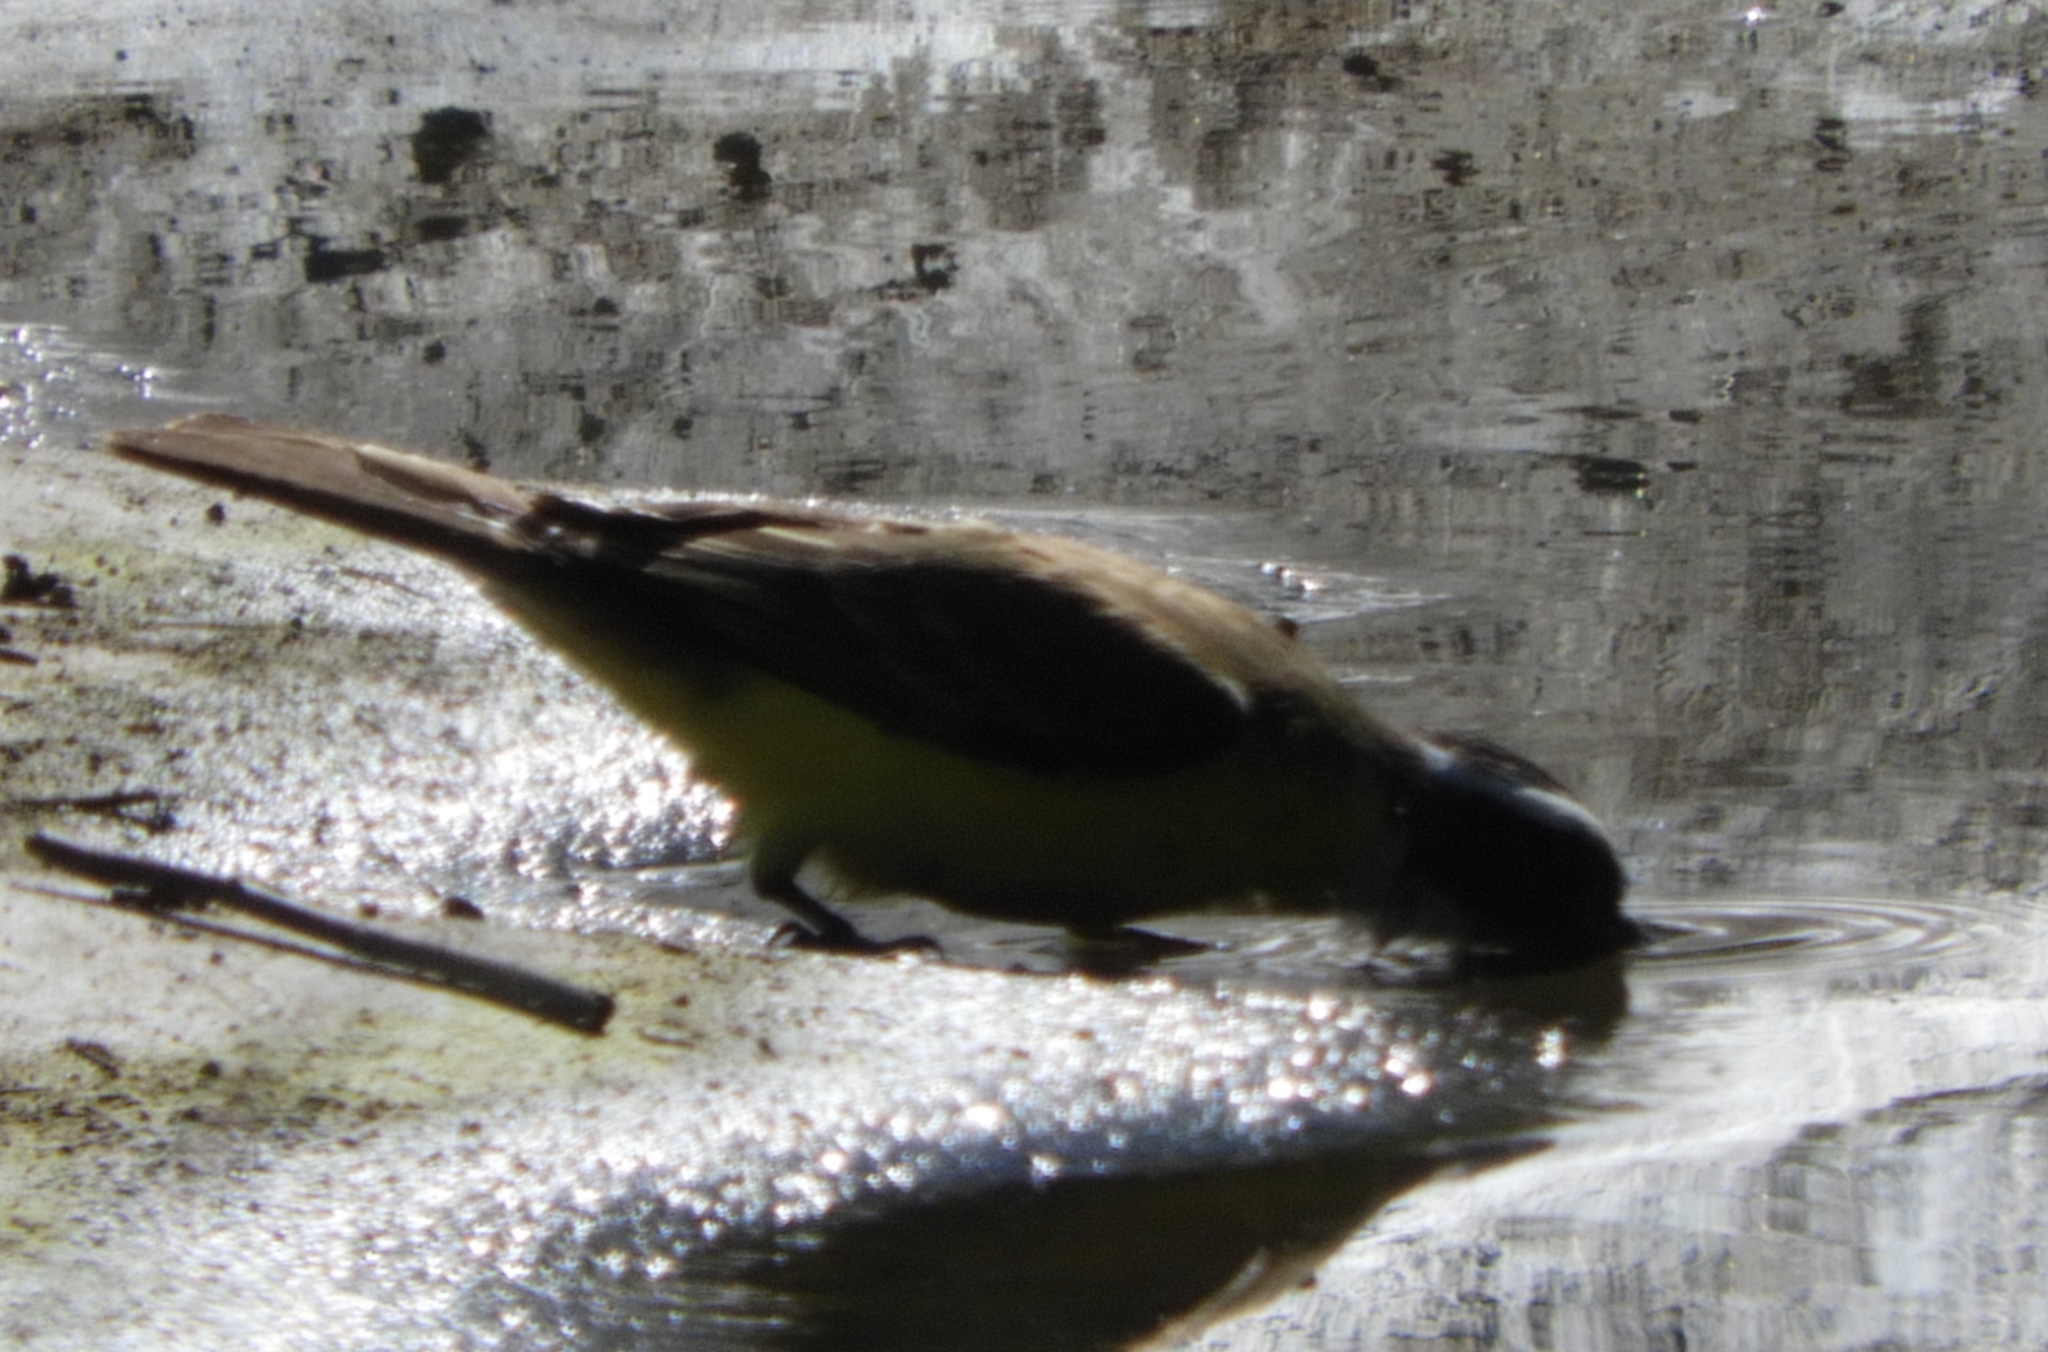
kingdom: Animalia
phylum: Chordata
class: Aves
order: Passeriformes
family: Tyrannidae
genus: Myiozetetes
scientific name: Myiozetetes similis
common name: Social flycatcher
